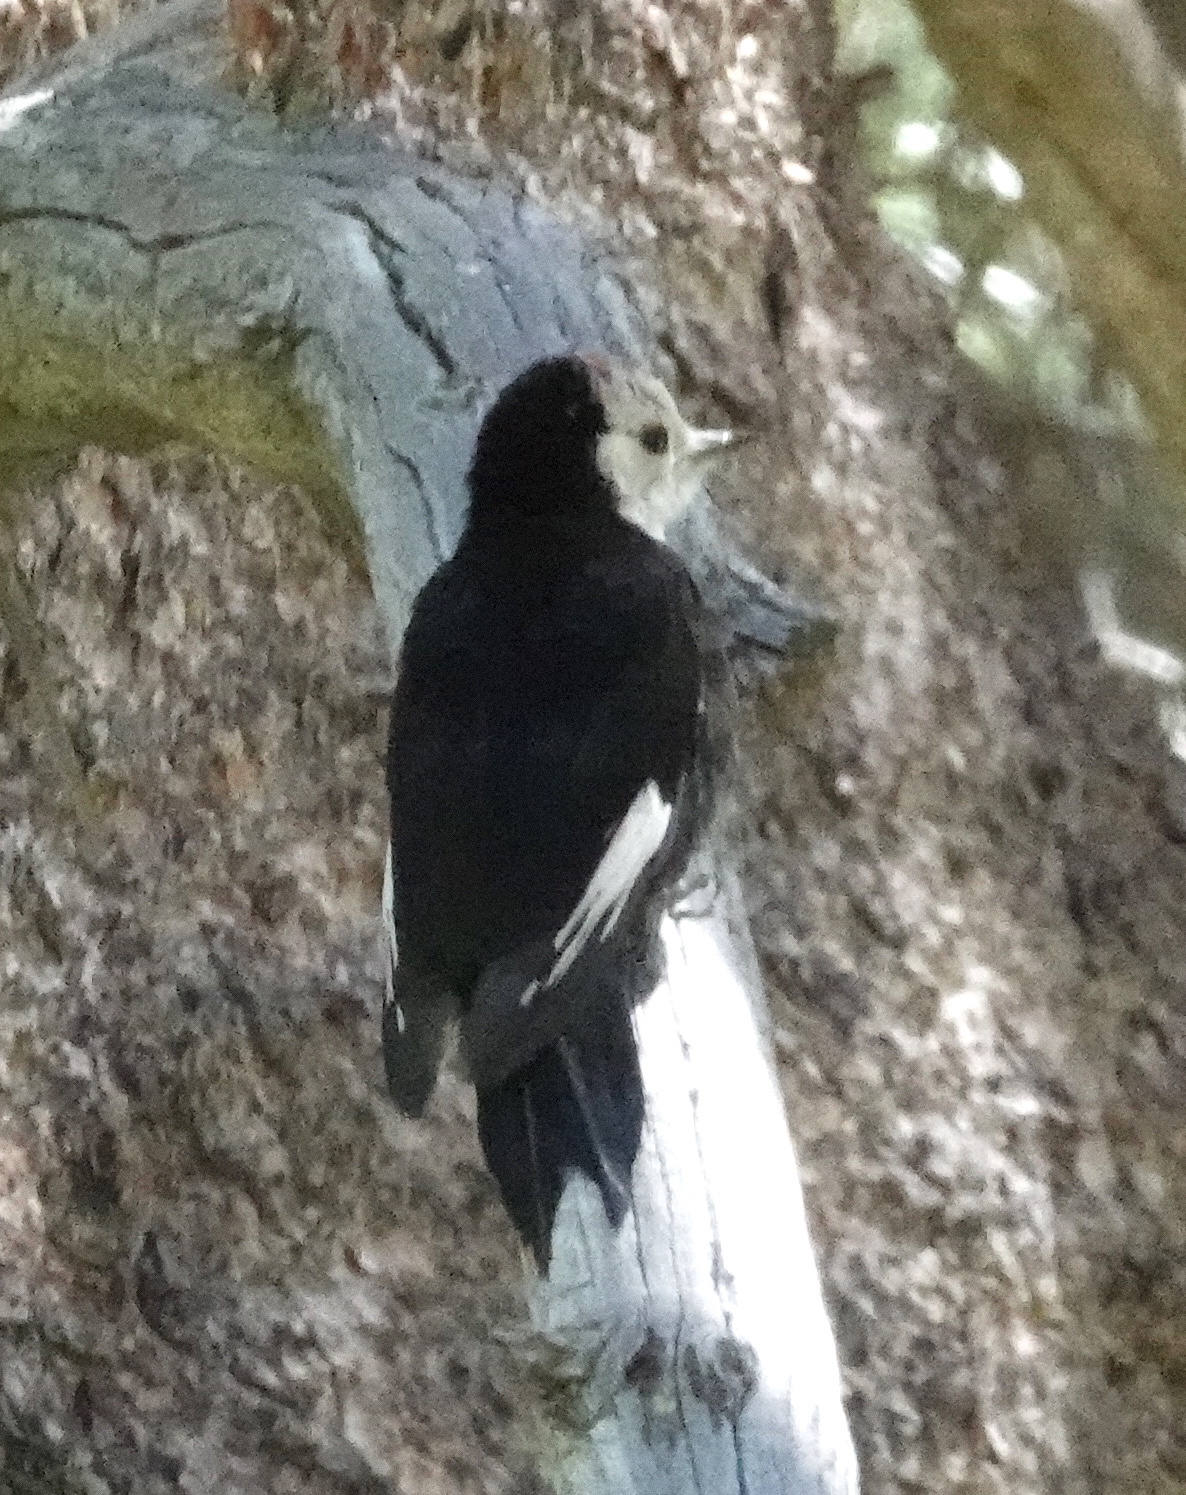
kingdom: Animalia
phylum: Chordata
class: Aves
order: Piciformes
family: Picidae
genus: Leuconotopicus
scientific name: Leuconotopicus albolarvatus
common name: White-headed woodpecker
